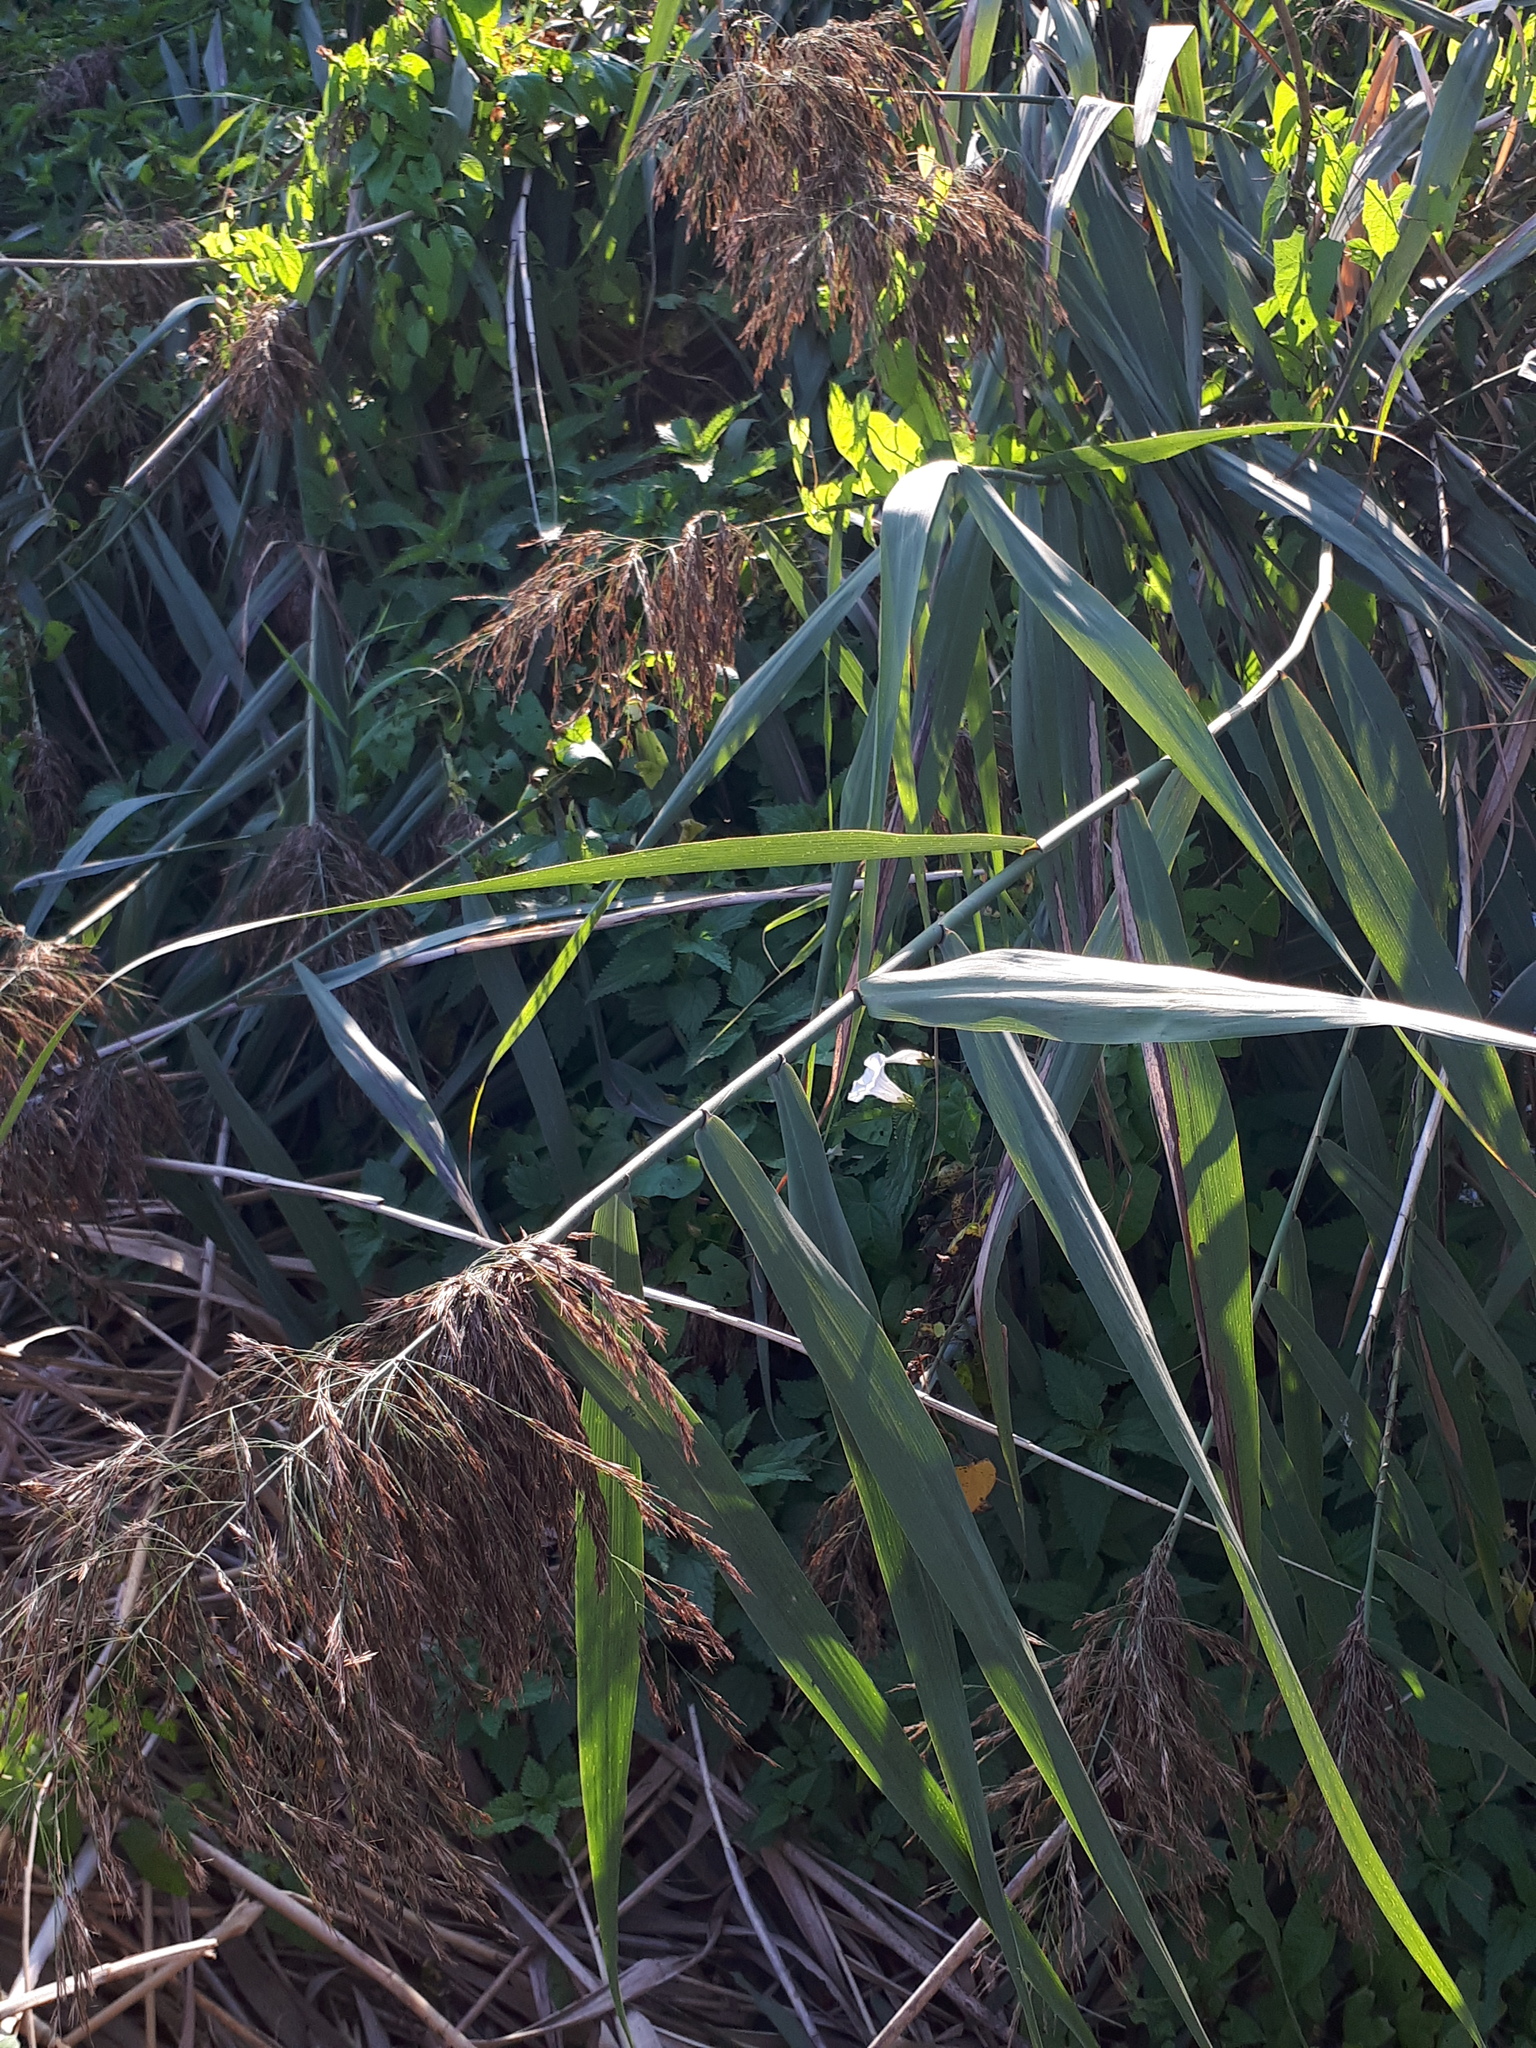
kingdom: Plantae
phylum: Tracheophyta
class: Liliopsida
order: Poales
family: Poaceae
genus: Phragmites
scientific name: Phragmites australis
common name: Common reed
